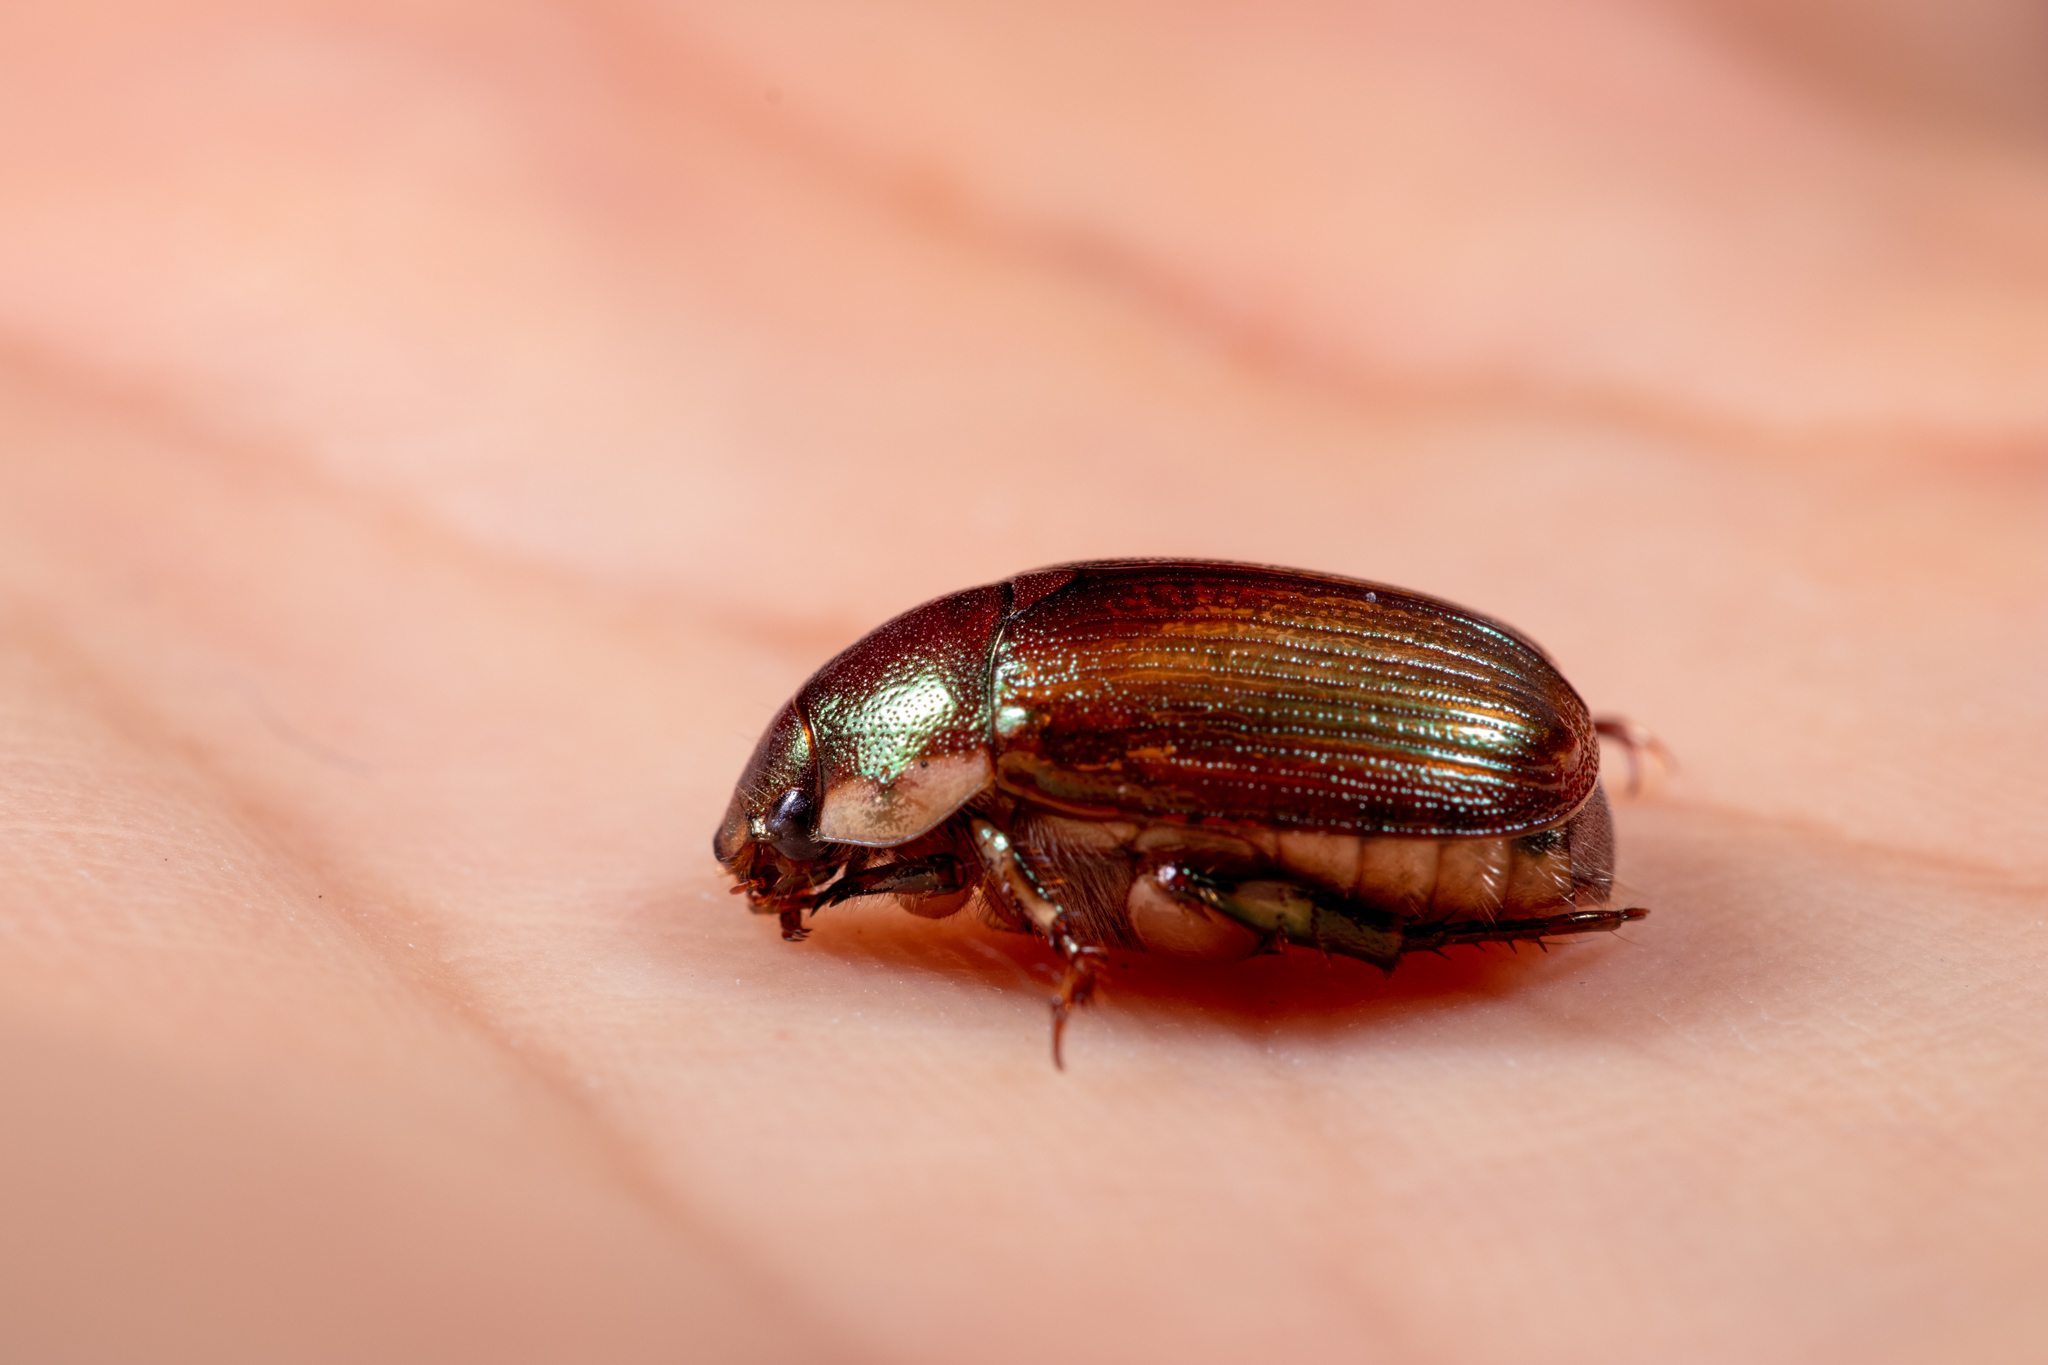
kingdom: Animalia
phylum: Arthropoda
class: Insecta
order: Coleoptera
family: Scarabaeidae
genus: Callistethus
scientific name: Callistethus marginatus
